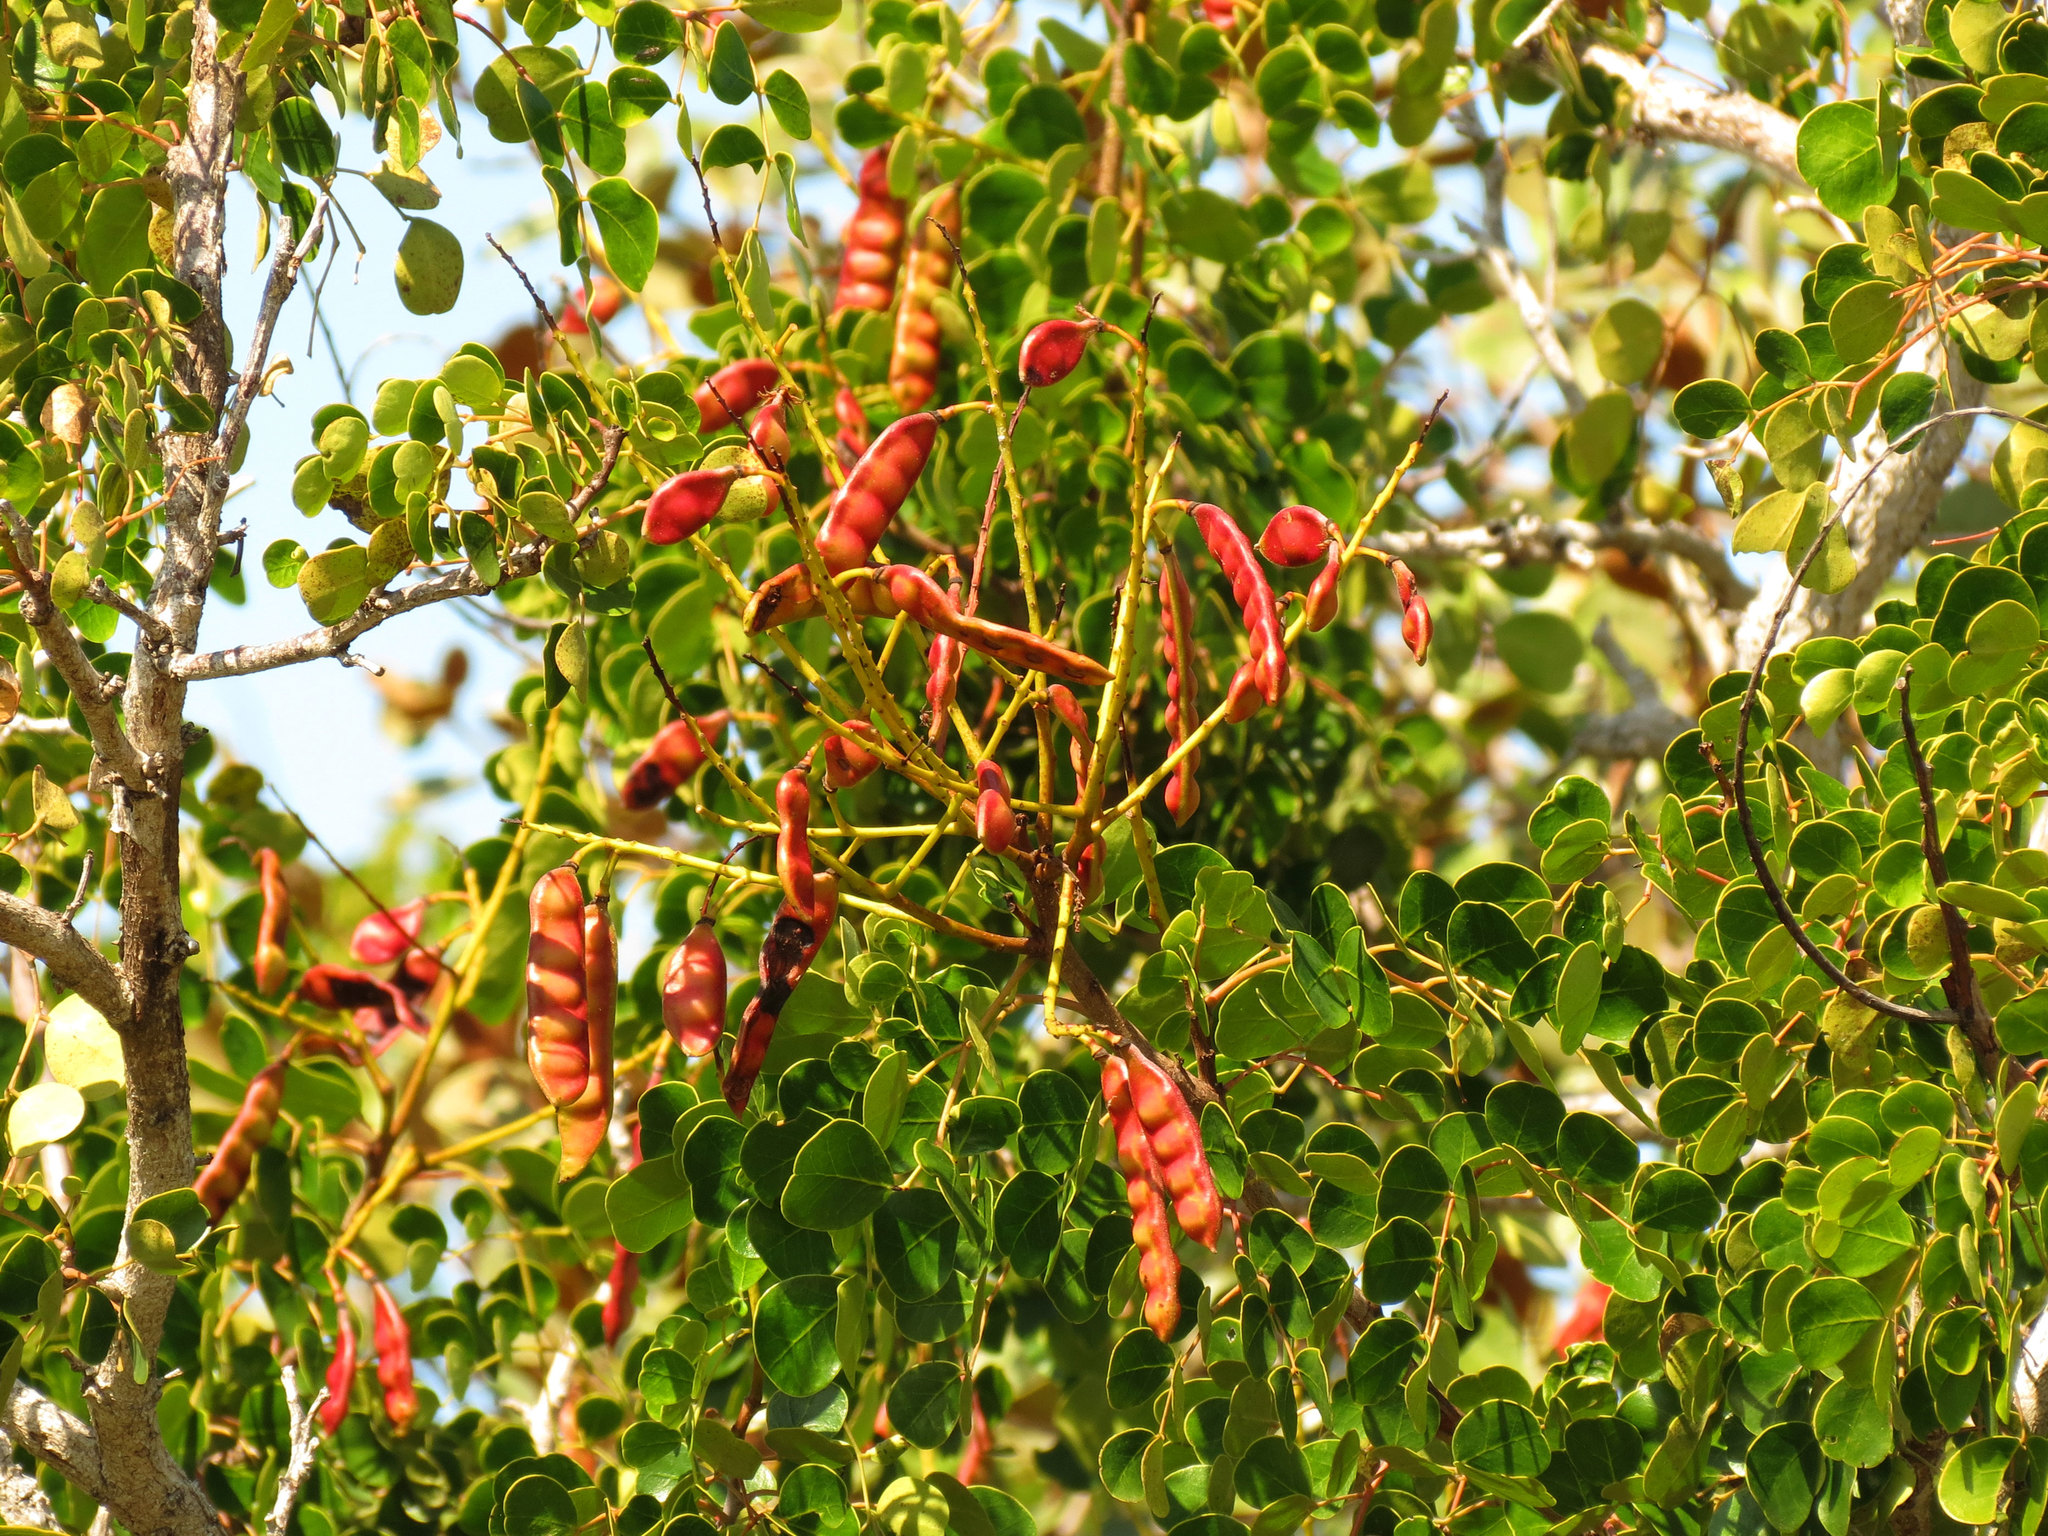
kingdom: Plantae
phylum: Tracheophyta
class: Magnoliopsida
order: Fabales
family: Fabaceae
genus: Tara
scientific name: Tara vesicaria
